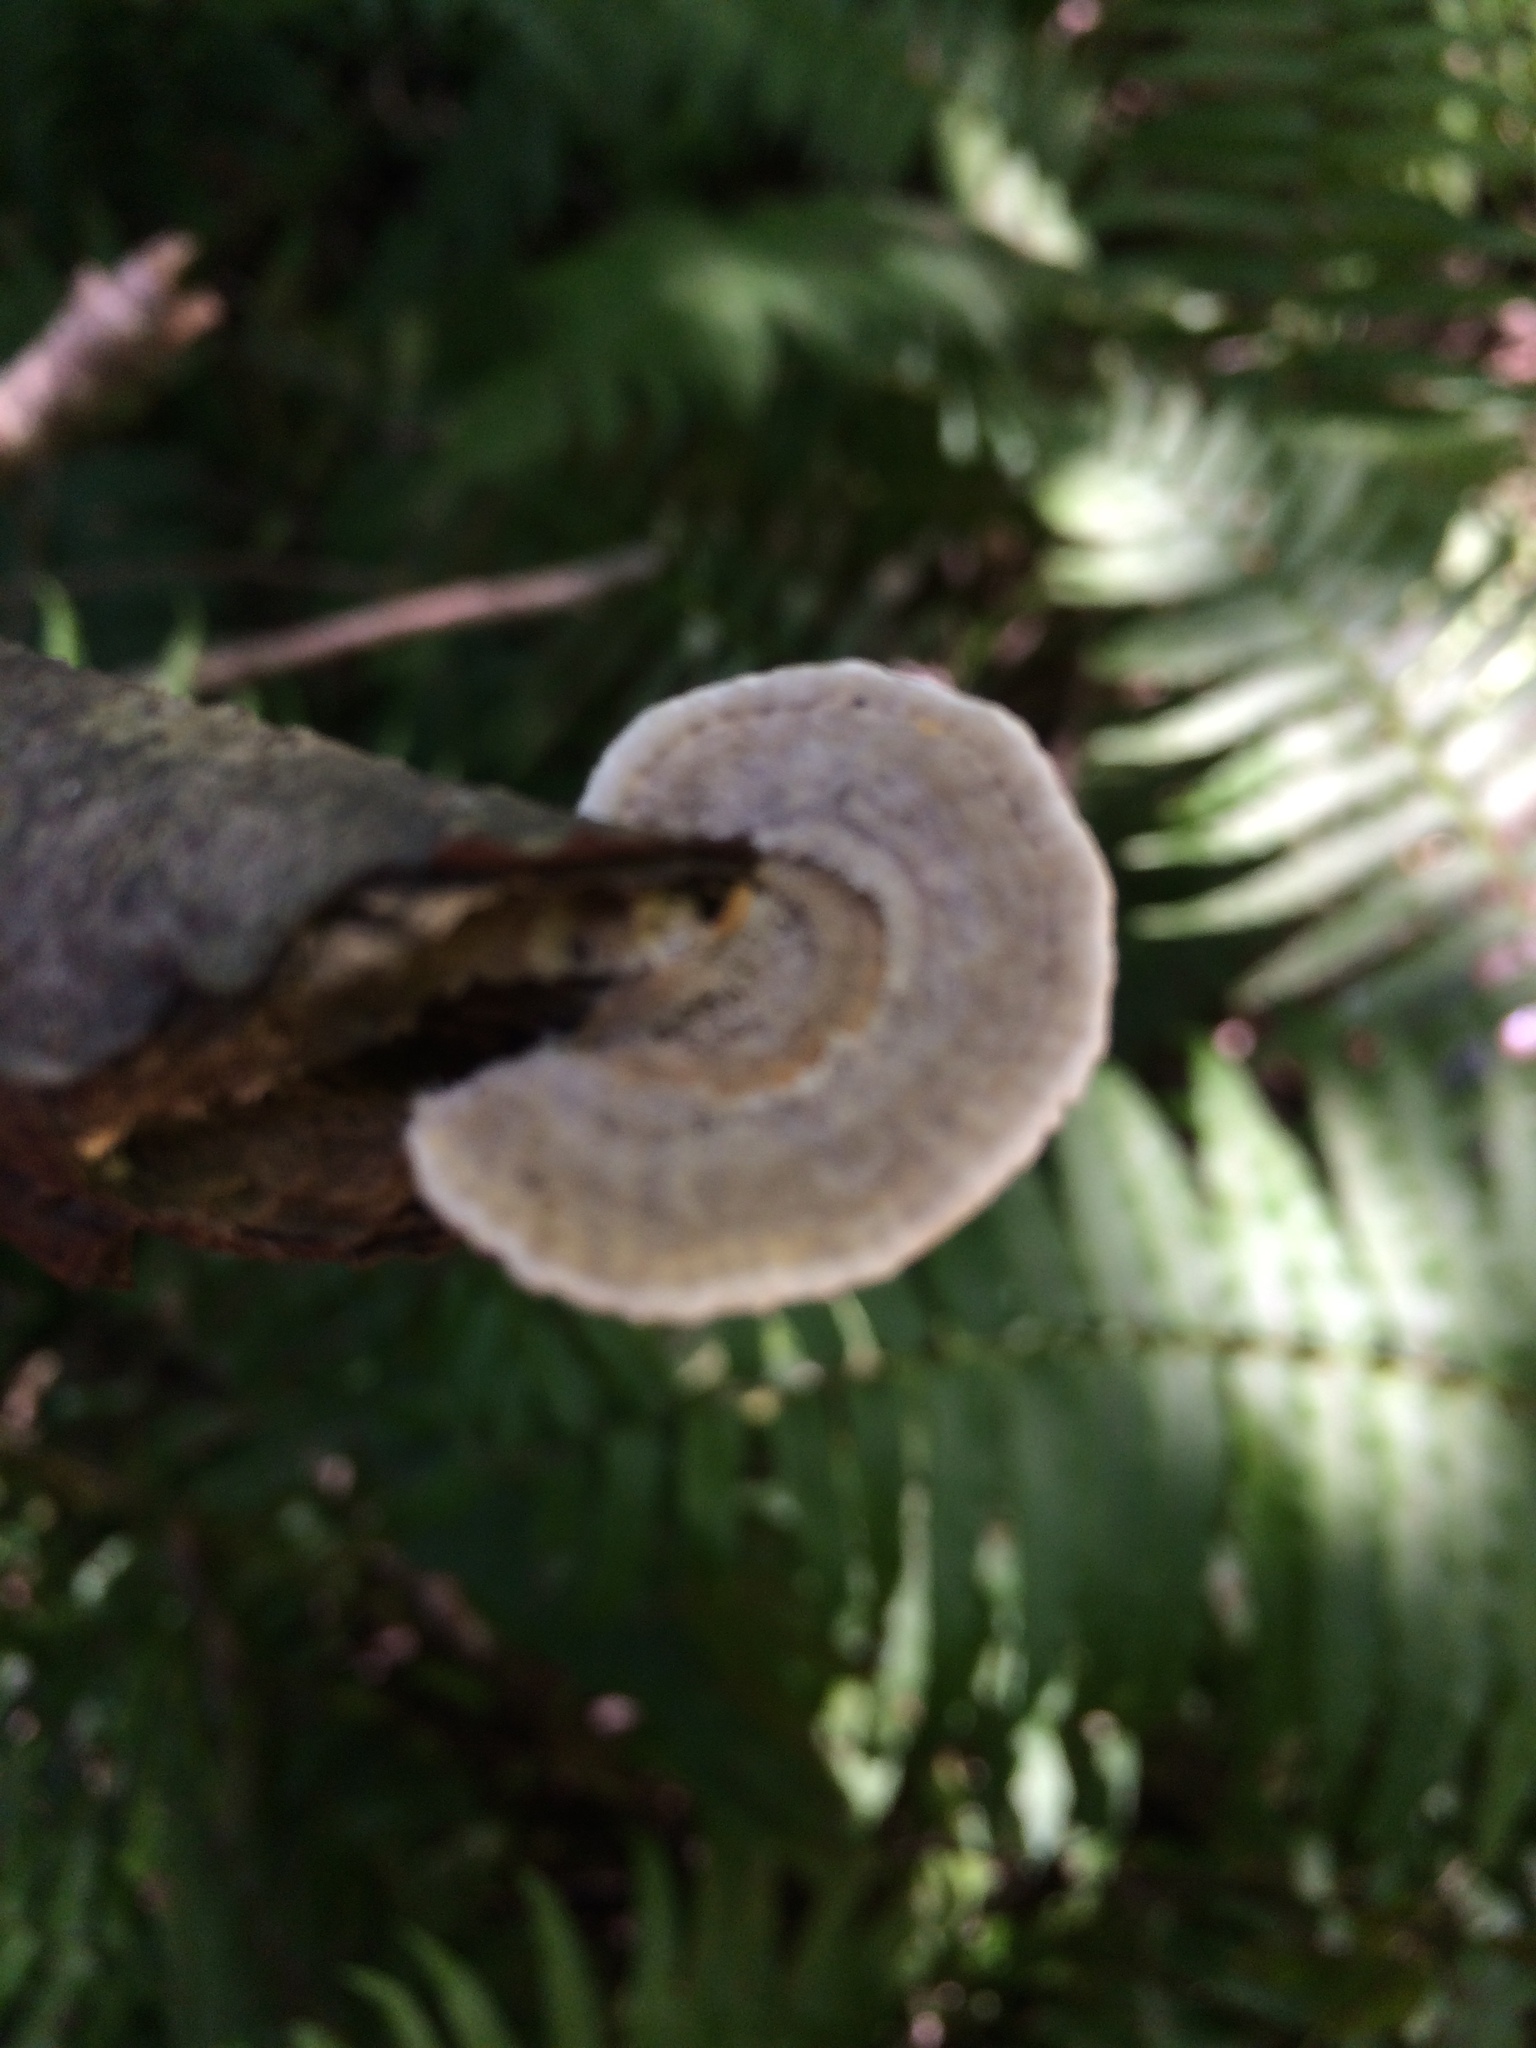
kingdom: Fungi
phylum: Basidiomycota
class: Agaricomycetes
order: Polyporales
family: Polyporaceae
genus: Lenzites
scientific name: Lenzites betulinus
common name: Birch mazegill
